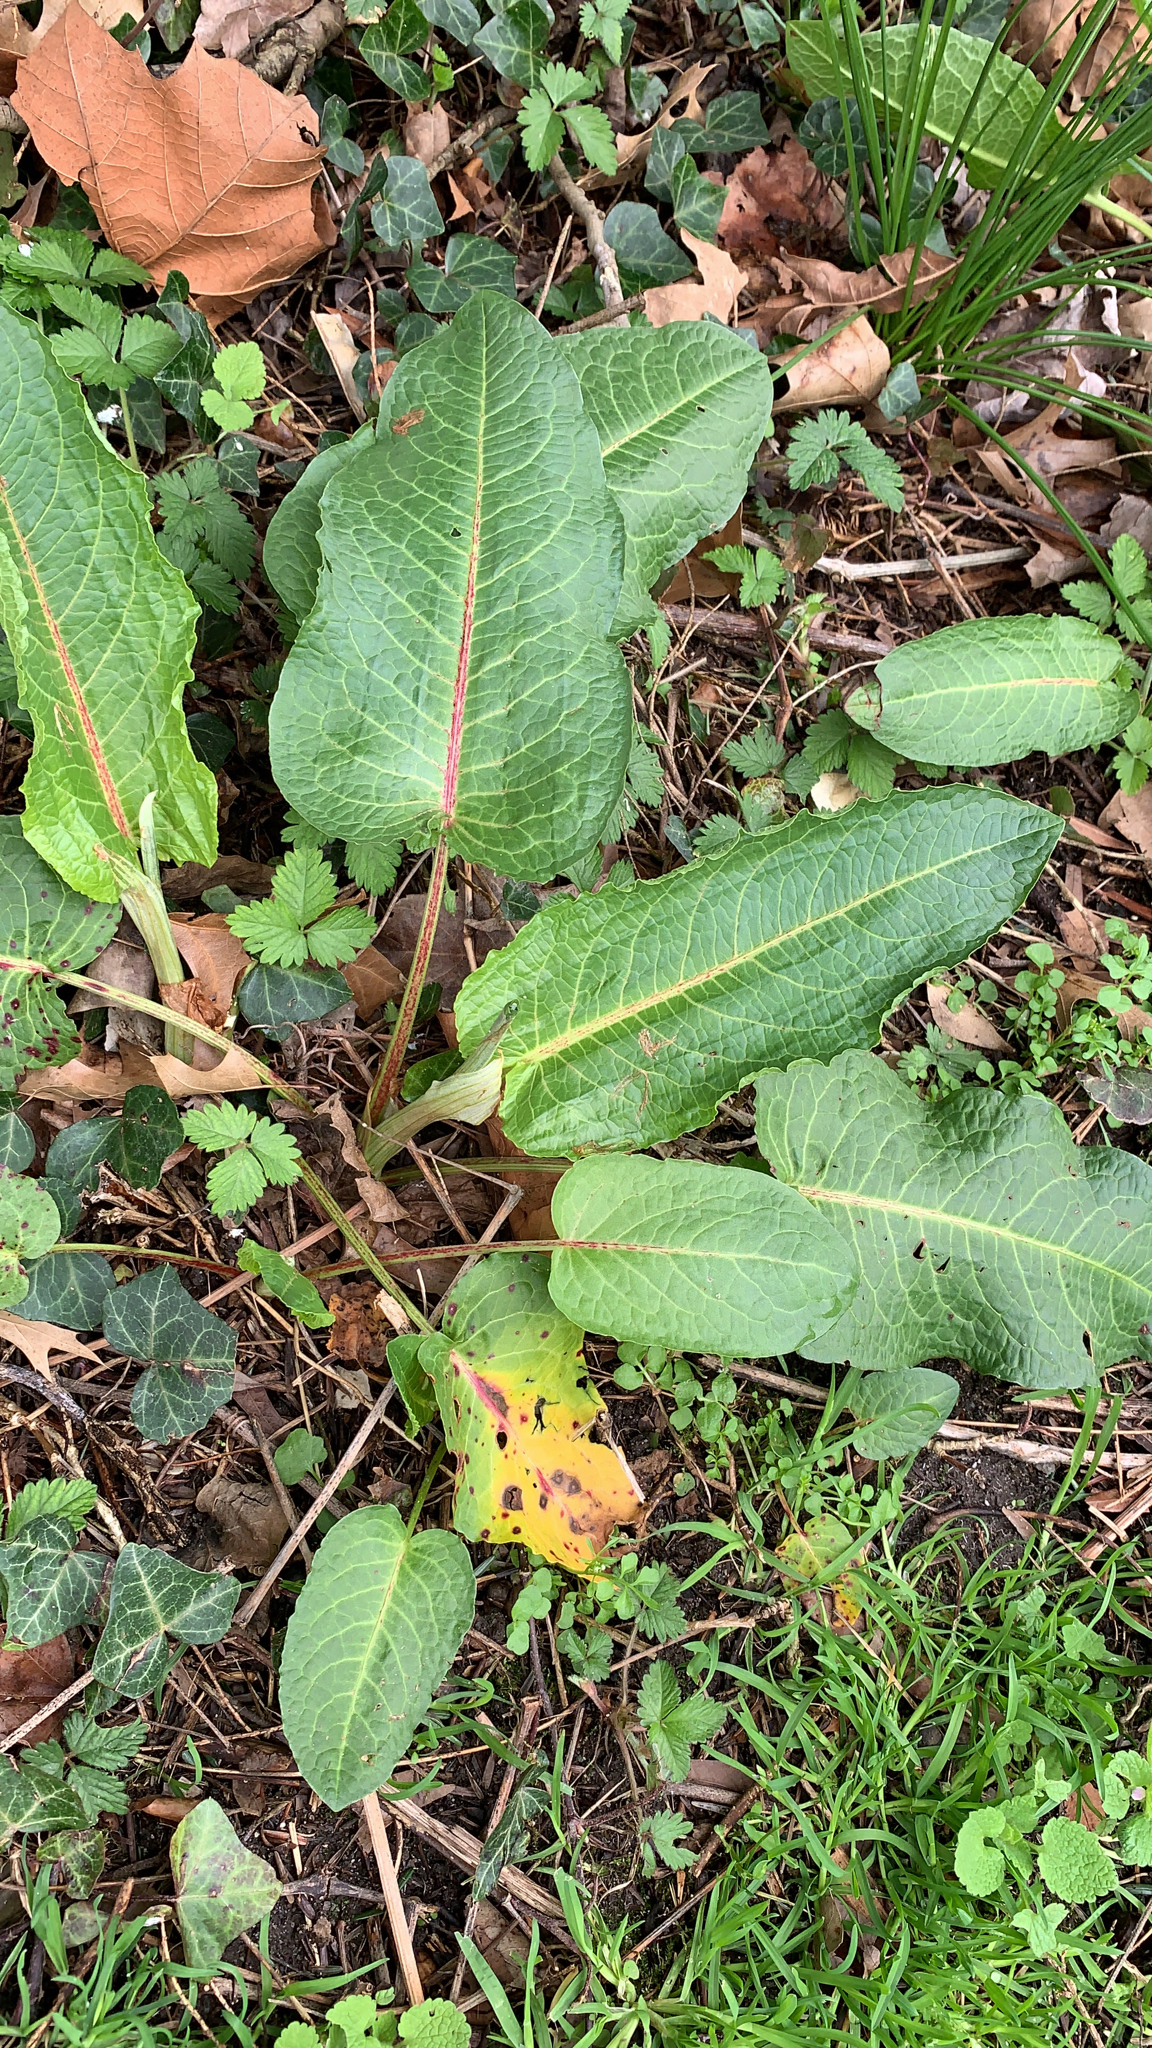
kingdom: Plantae
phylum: Tracheophyta
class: Magnoliopsida
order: Caryophyllales
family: Polygonaceae
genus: Rumex
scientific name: Rumex obtusifolius
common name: Bitter dock
